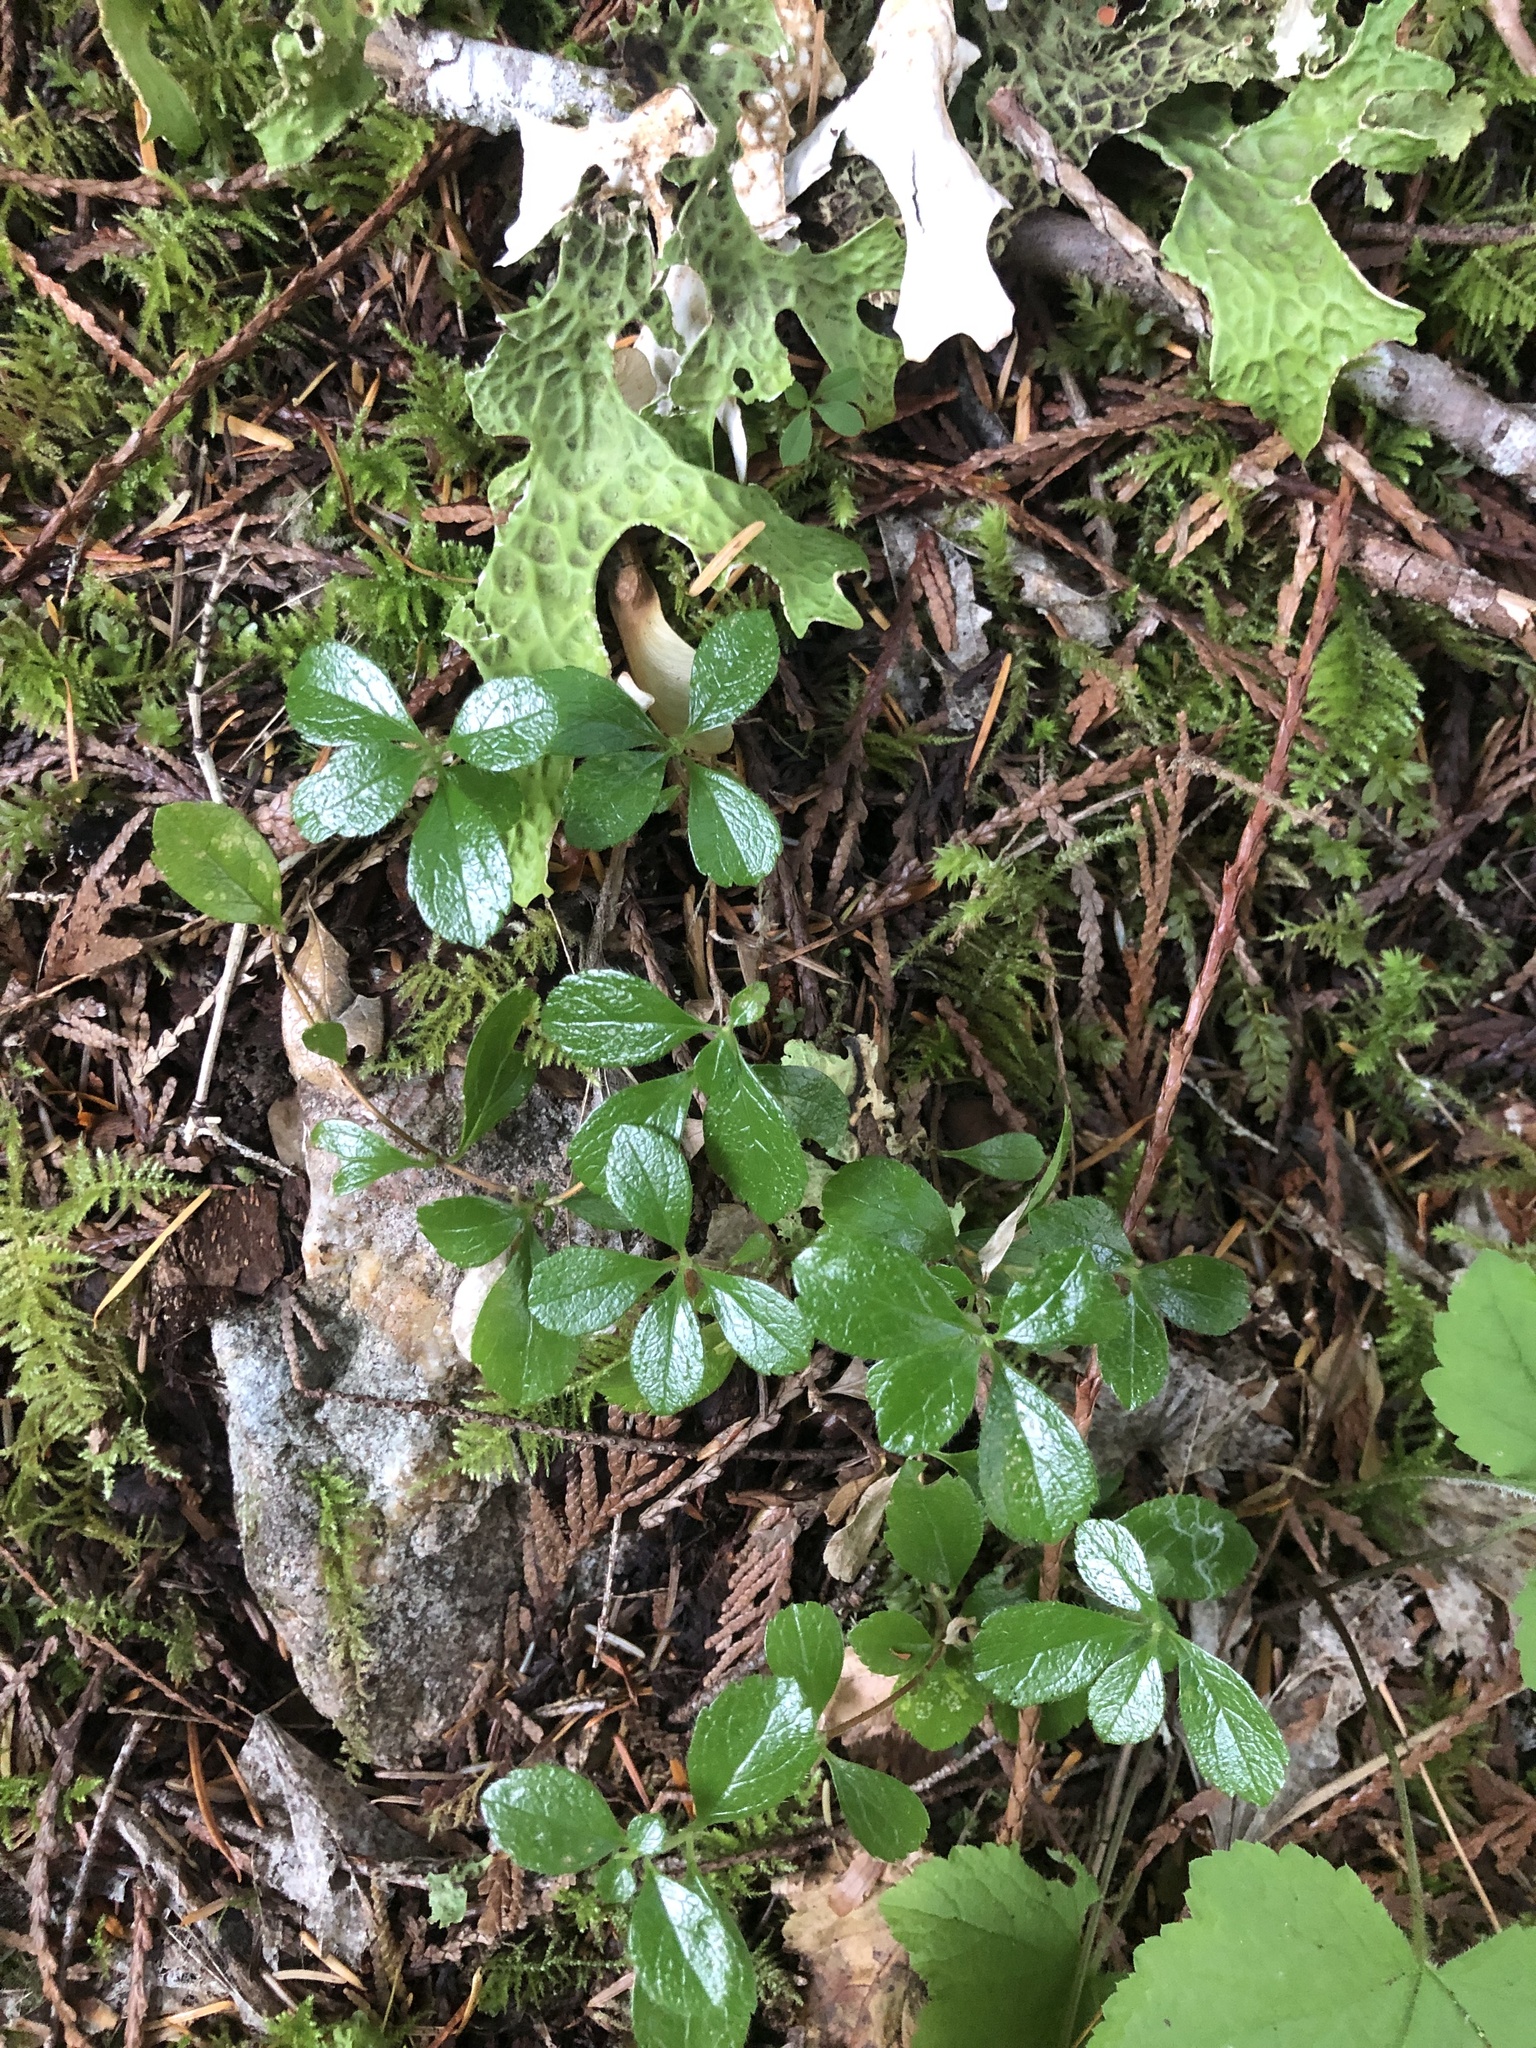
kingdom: Plantae
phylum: Tracheophyta
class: Magnoliopsida
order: Dipsacales
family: Caprifoliaceae
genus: Linnaea
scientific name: Linnaea borealis
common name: Twinflower
